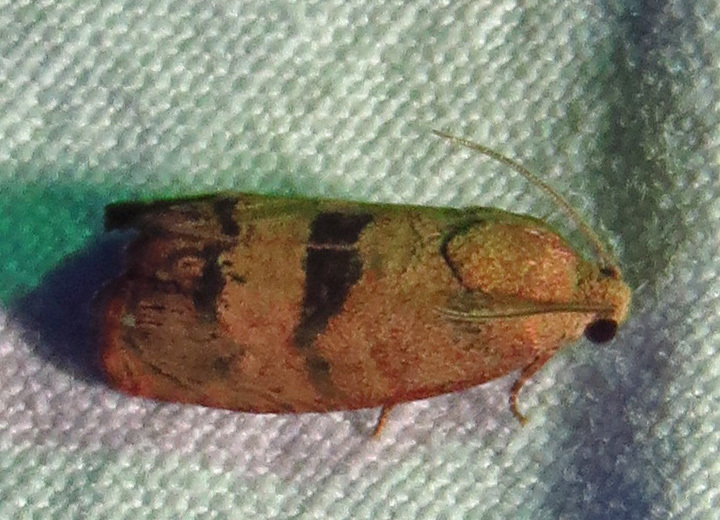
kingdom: Animalia
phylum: Arthropoda
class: Insecta
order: Lepidoptera
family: Tortricidae
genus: Cydia
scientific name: Cydia latiferreana
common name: Filbertworm moth
